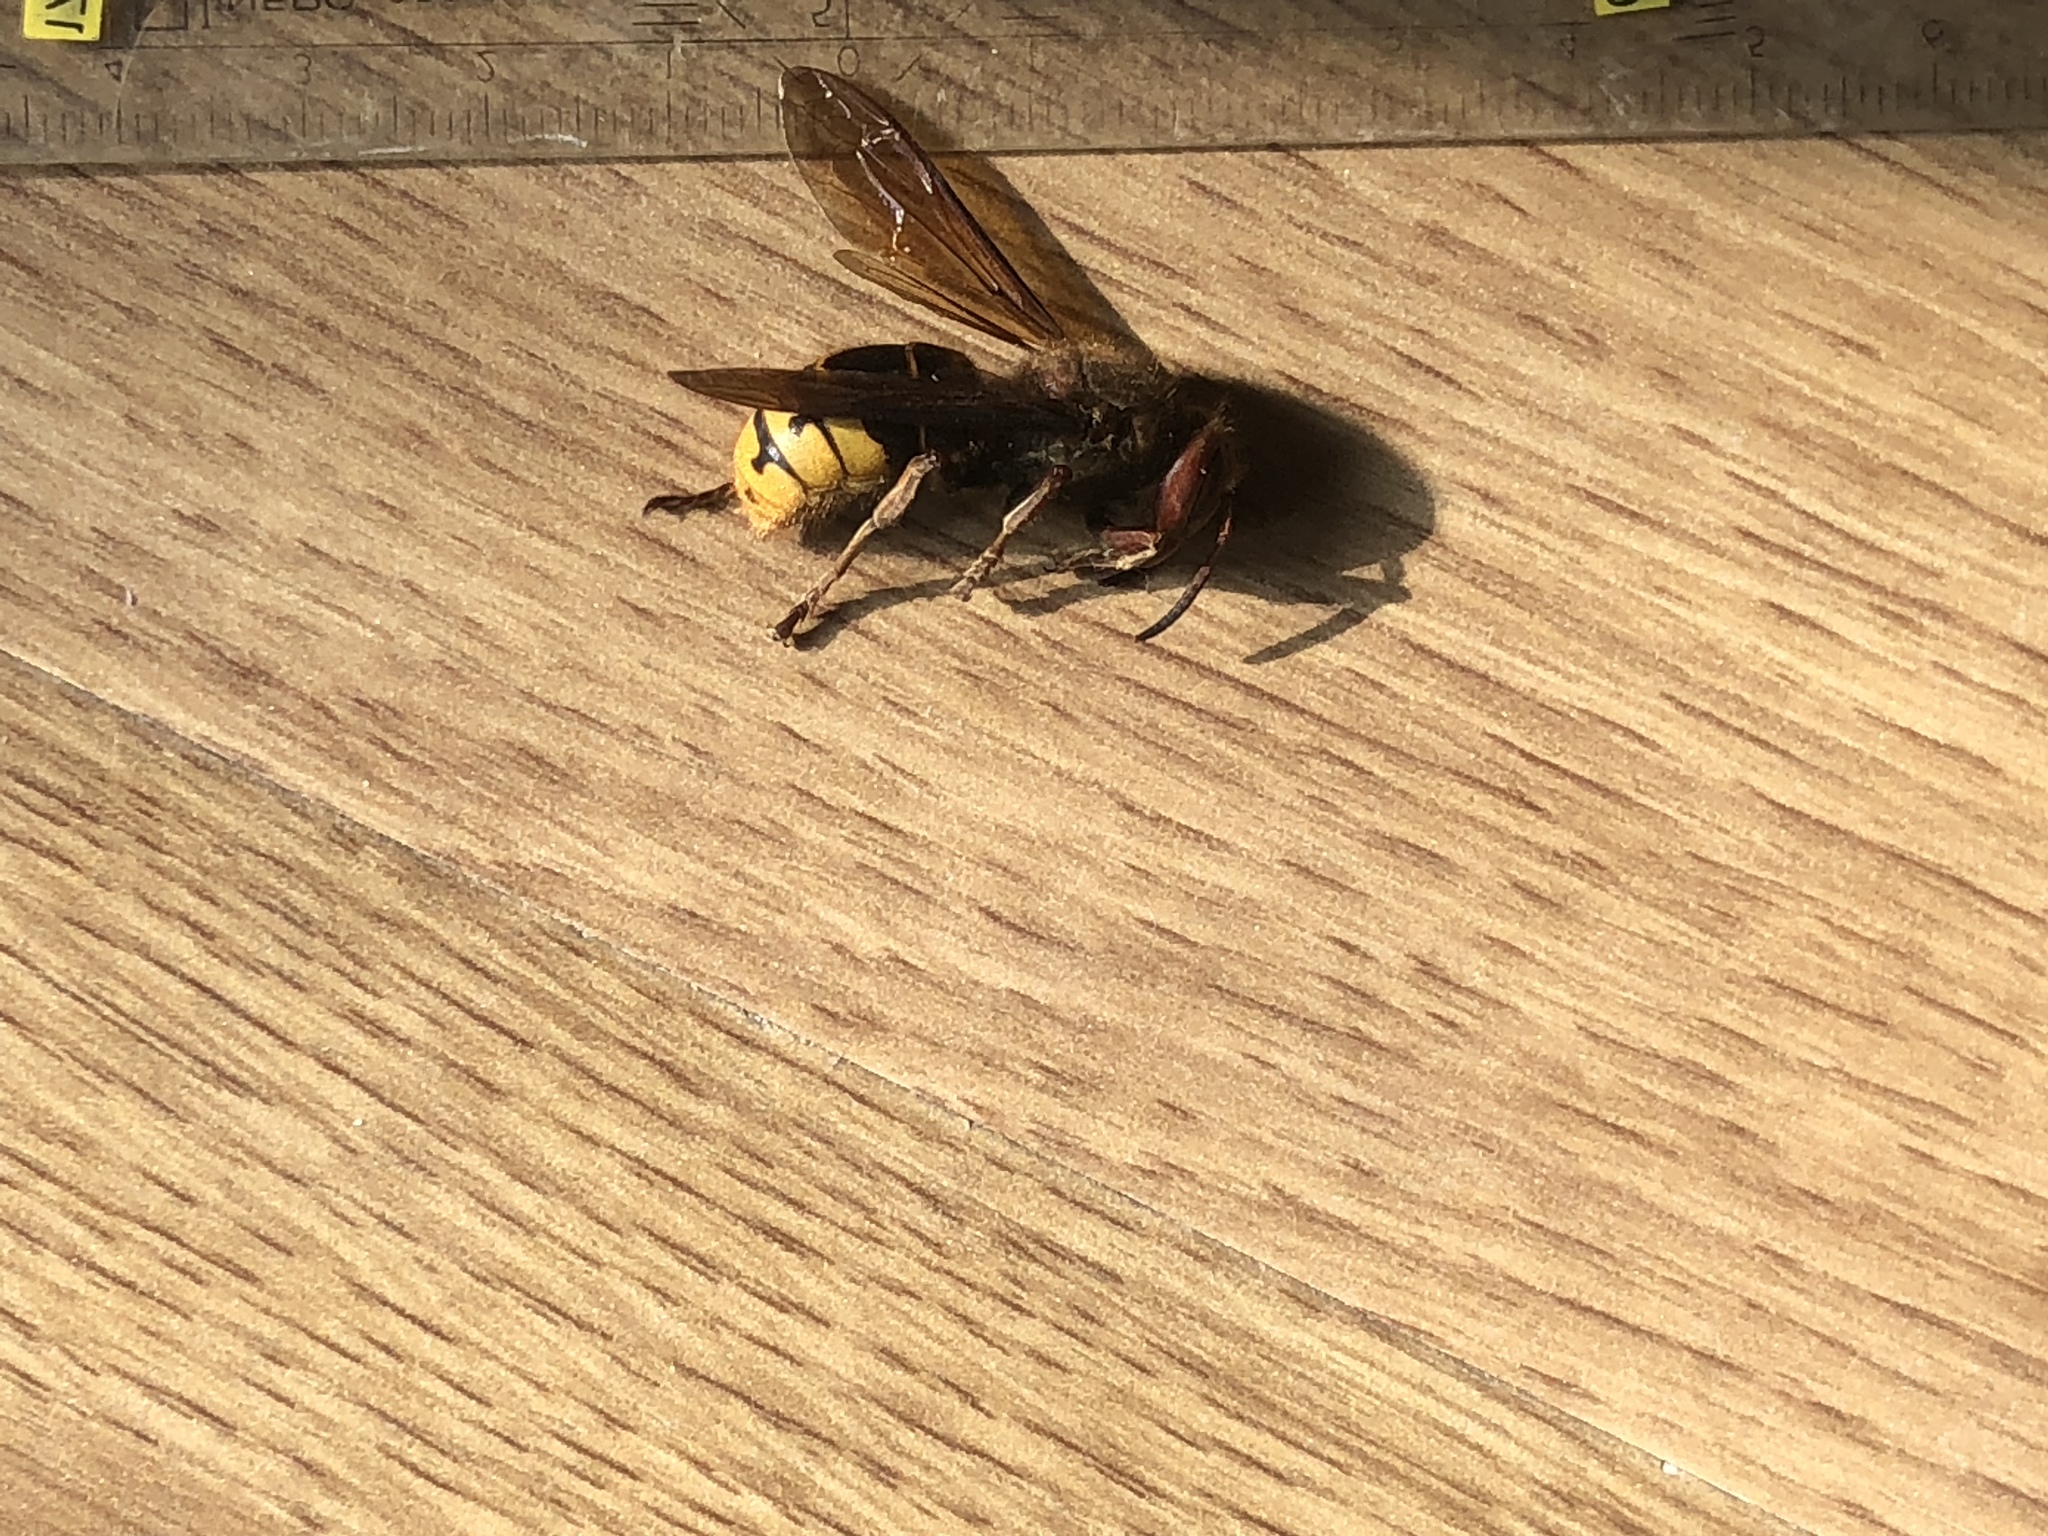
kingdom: Animalia
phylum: Arthropoda
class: Insecta
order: Hymenoptera
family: Vespidae
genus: Vespa
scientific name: Vespa crabro
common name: Hornet
